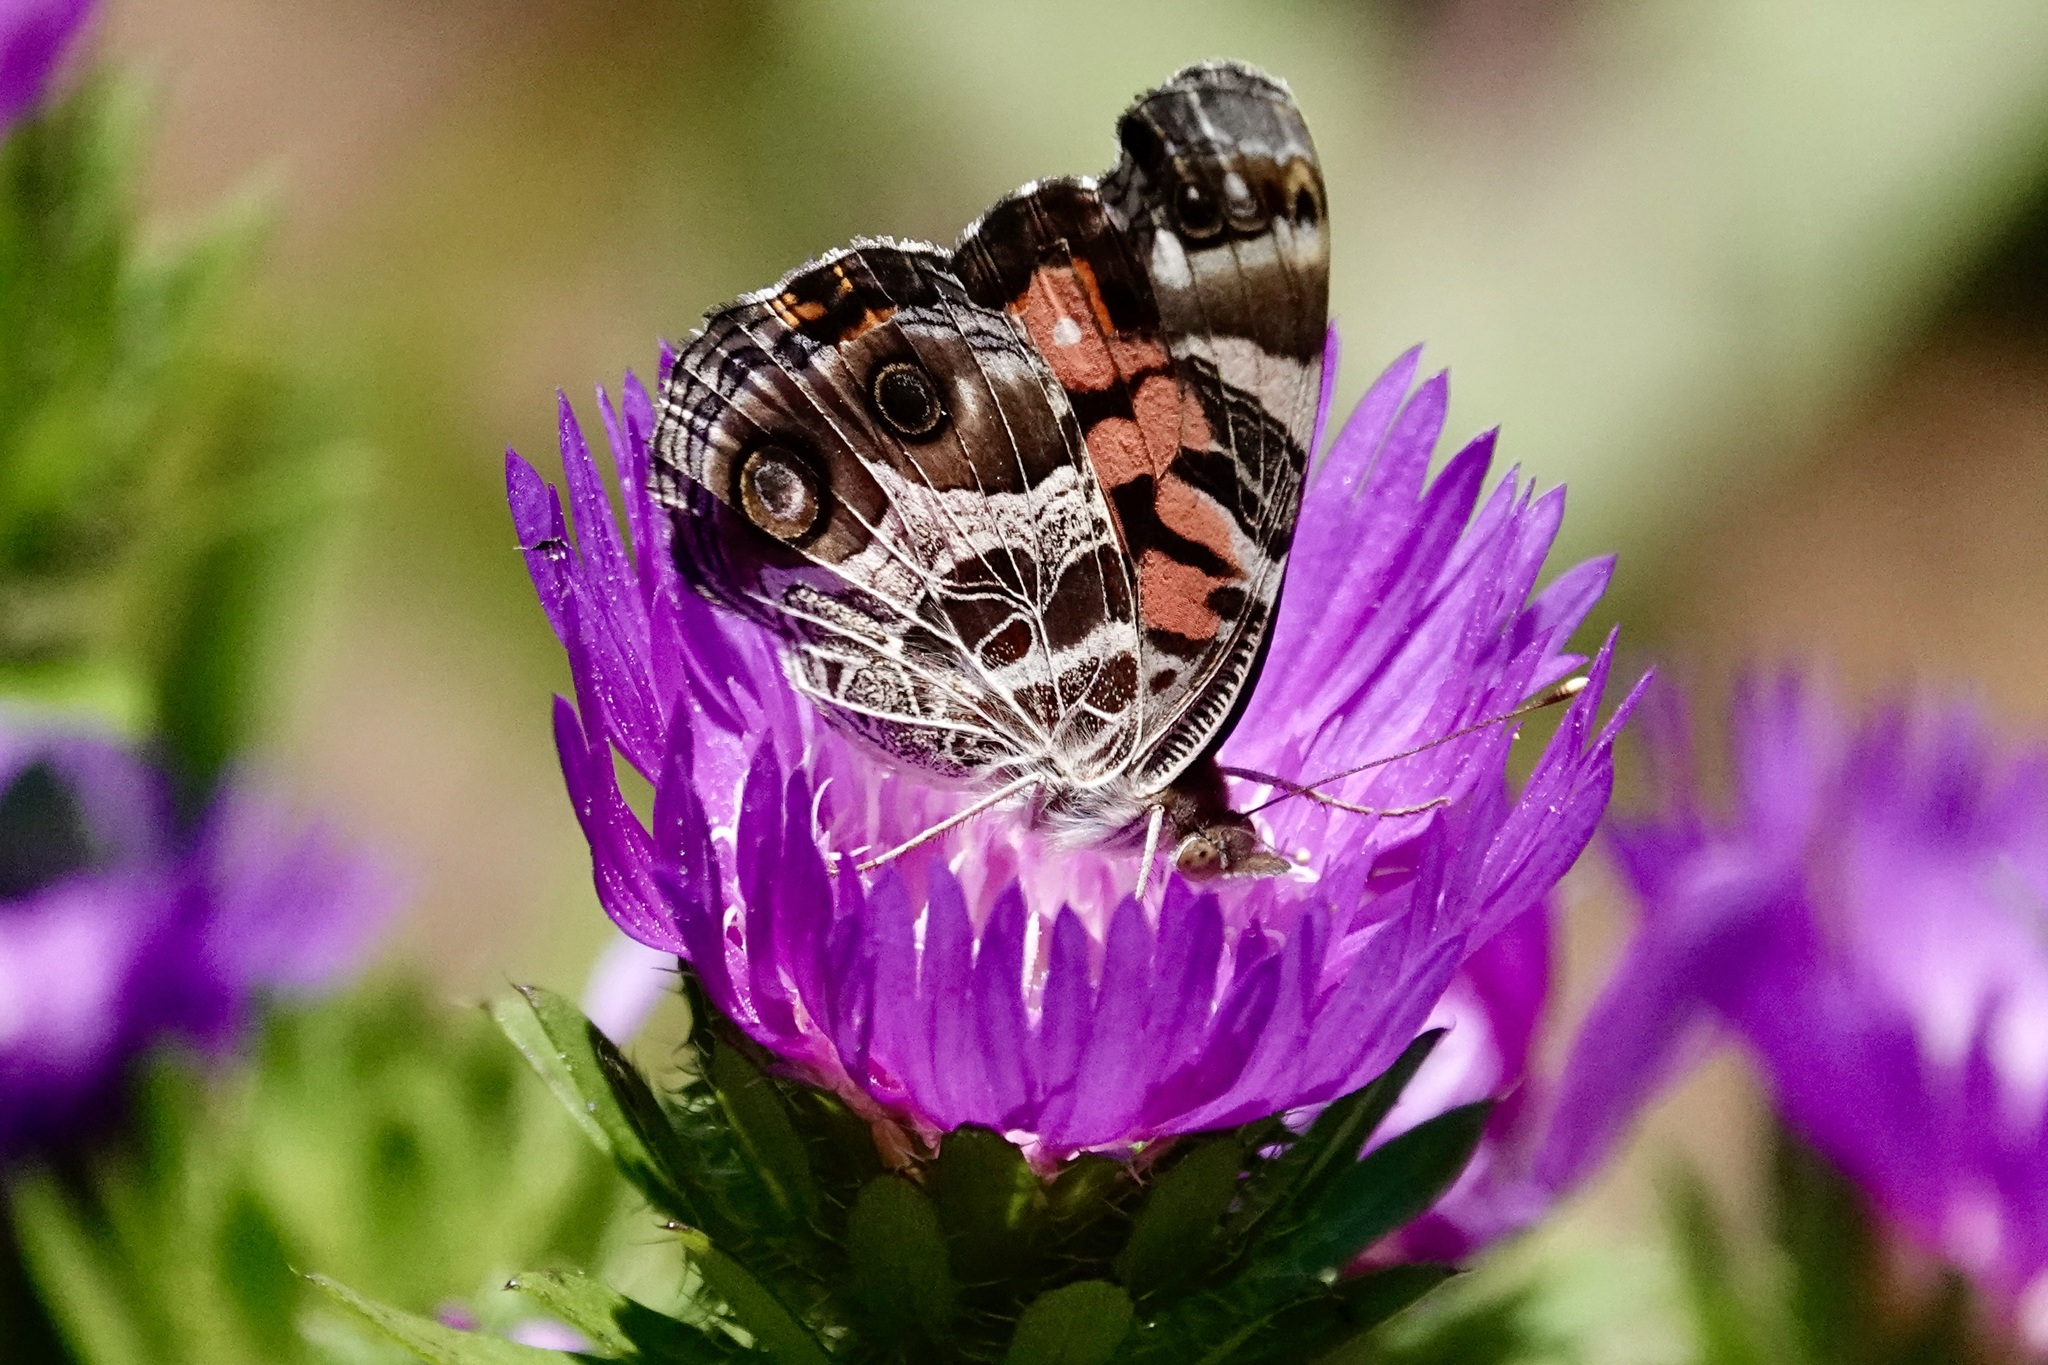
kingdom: Animalia
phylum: Arthropoda
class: Insecta
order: Lepidoptera
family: Nymphalidae
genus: Vanessa
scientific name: Vanessa virginiensis
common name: American lady
